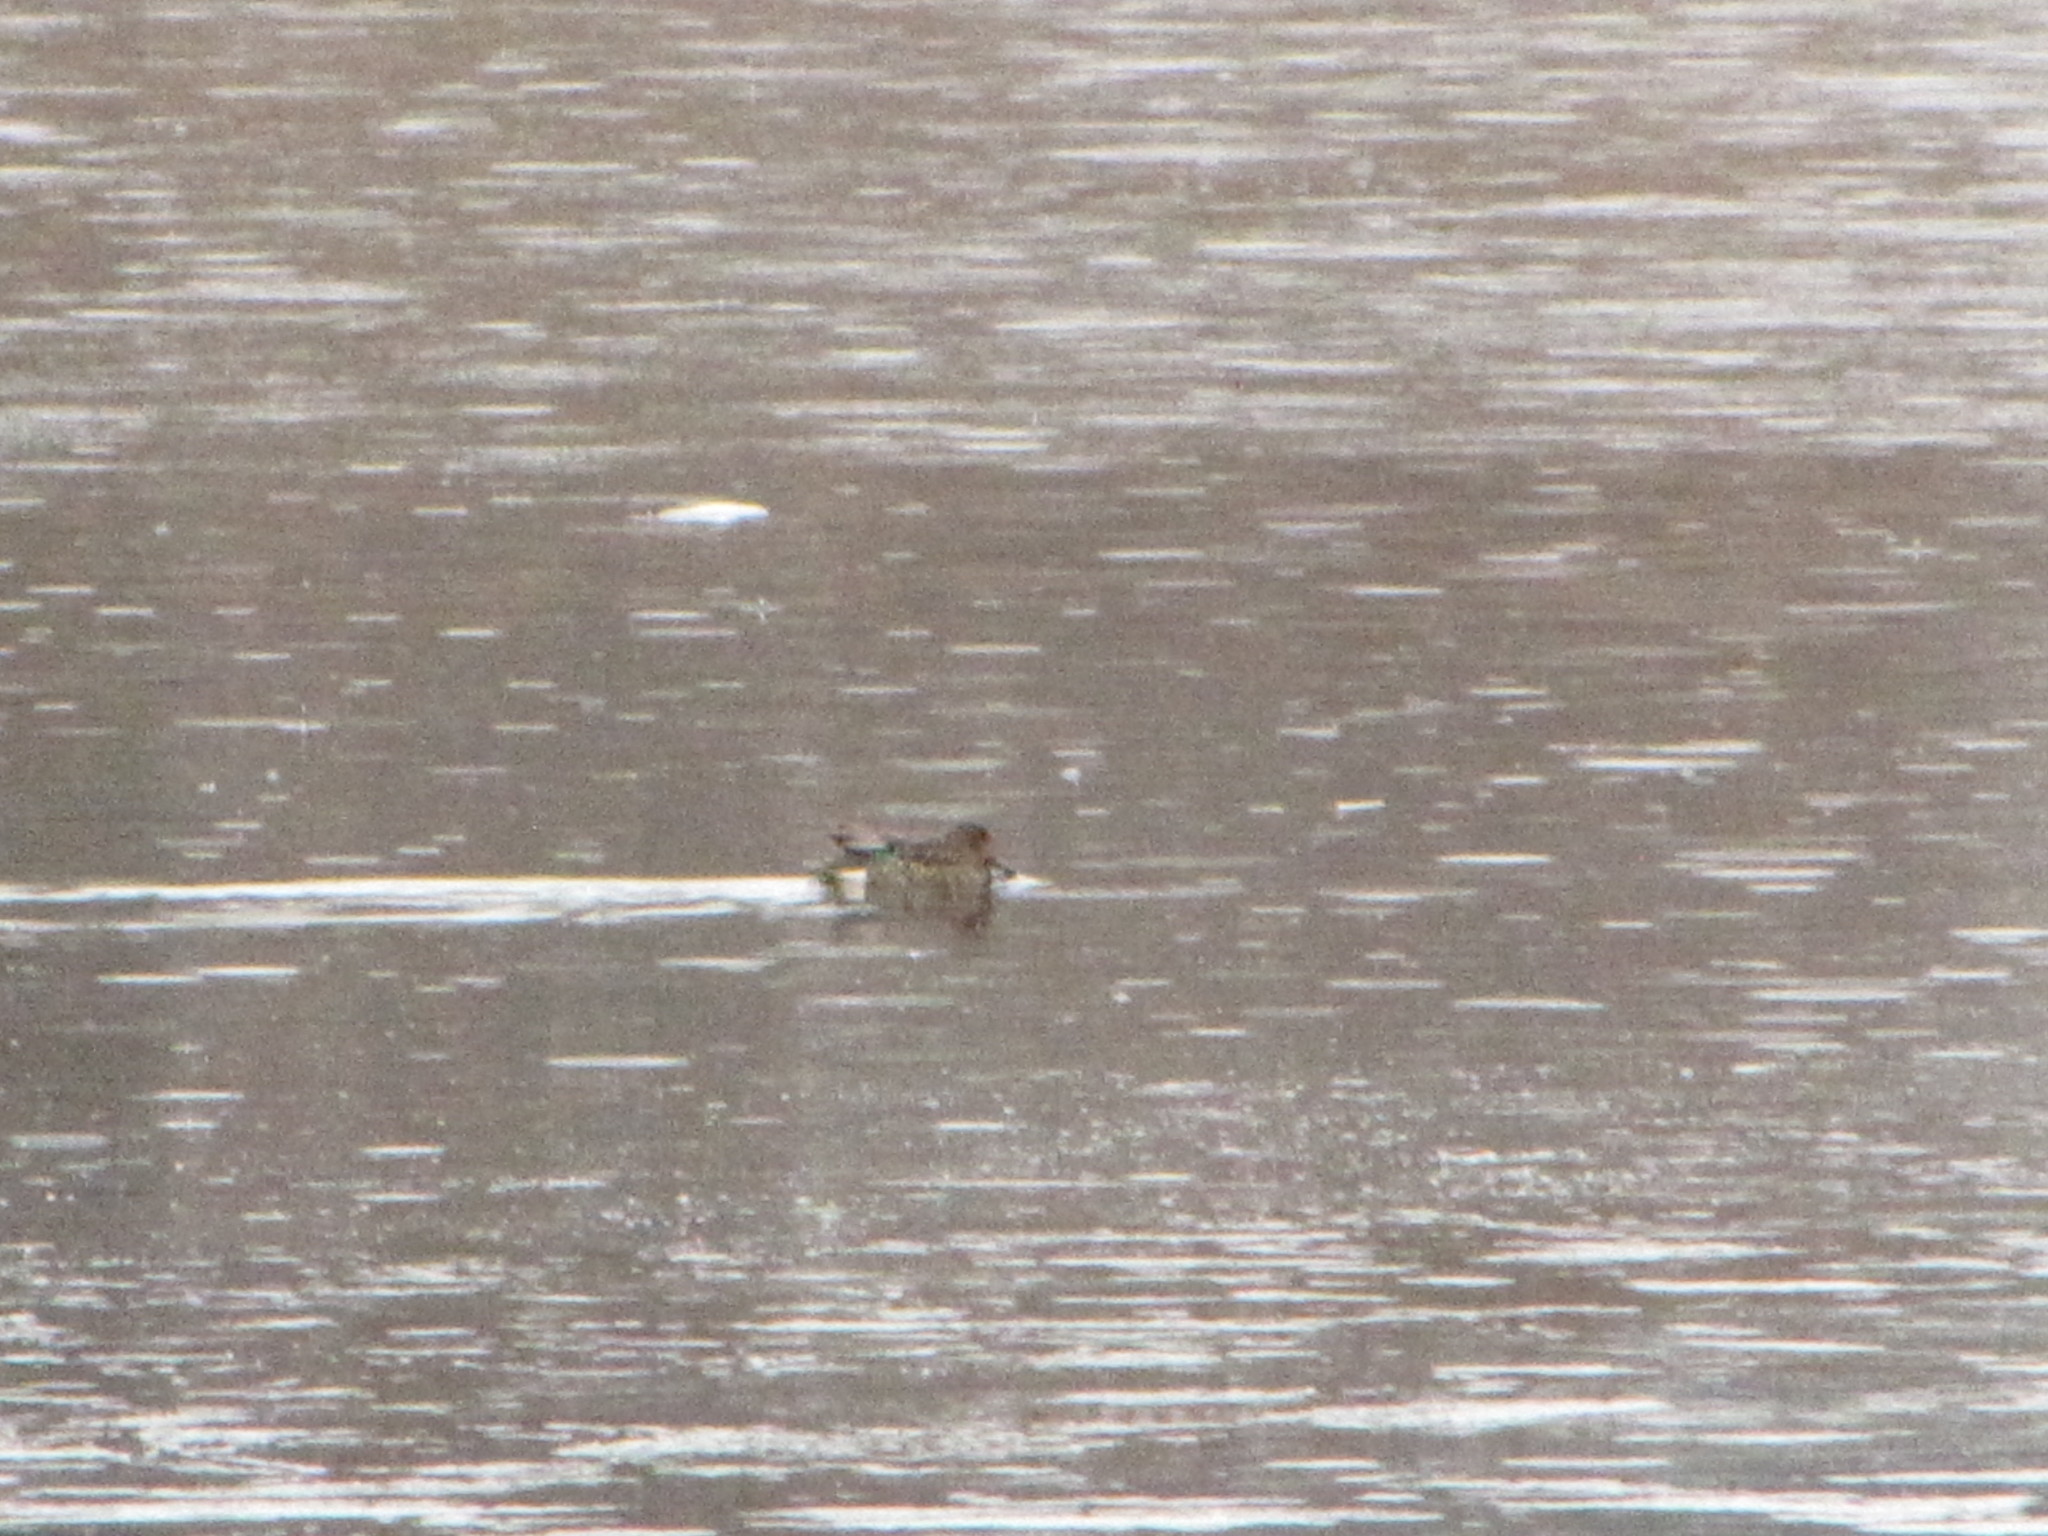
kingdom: Animalia
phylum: Chordata
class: Aves
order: Anseriformes
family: Anatidae
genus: Anas
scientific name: Anas carolinensis
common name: Green-winged teal
